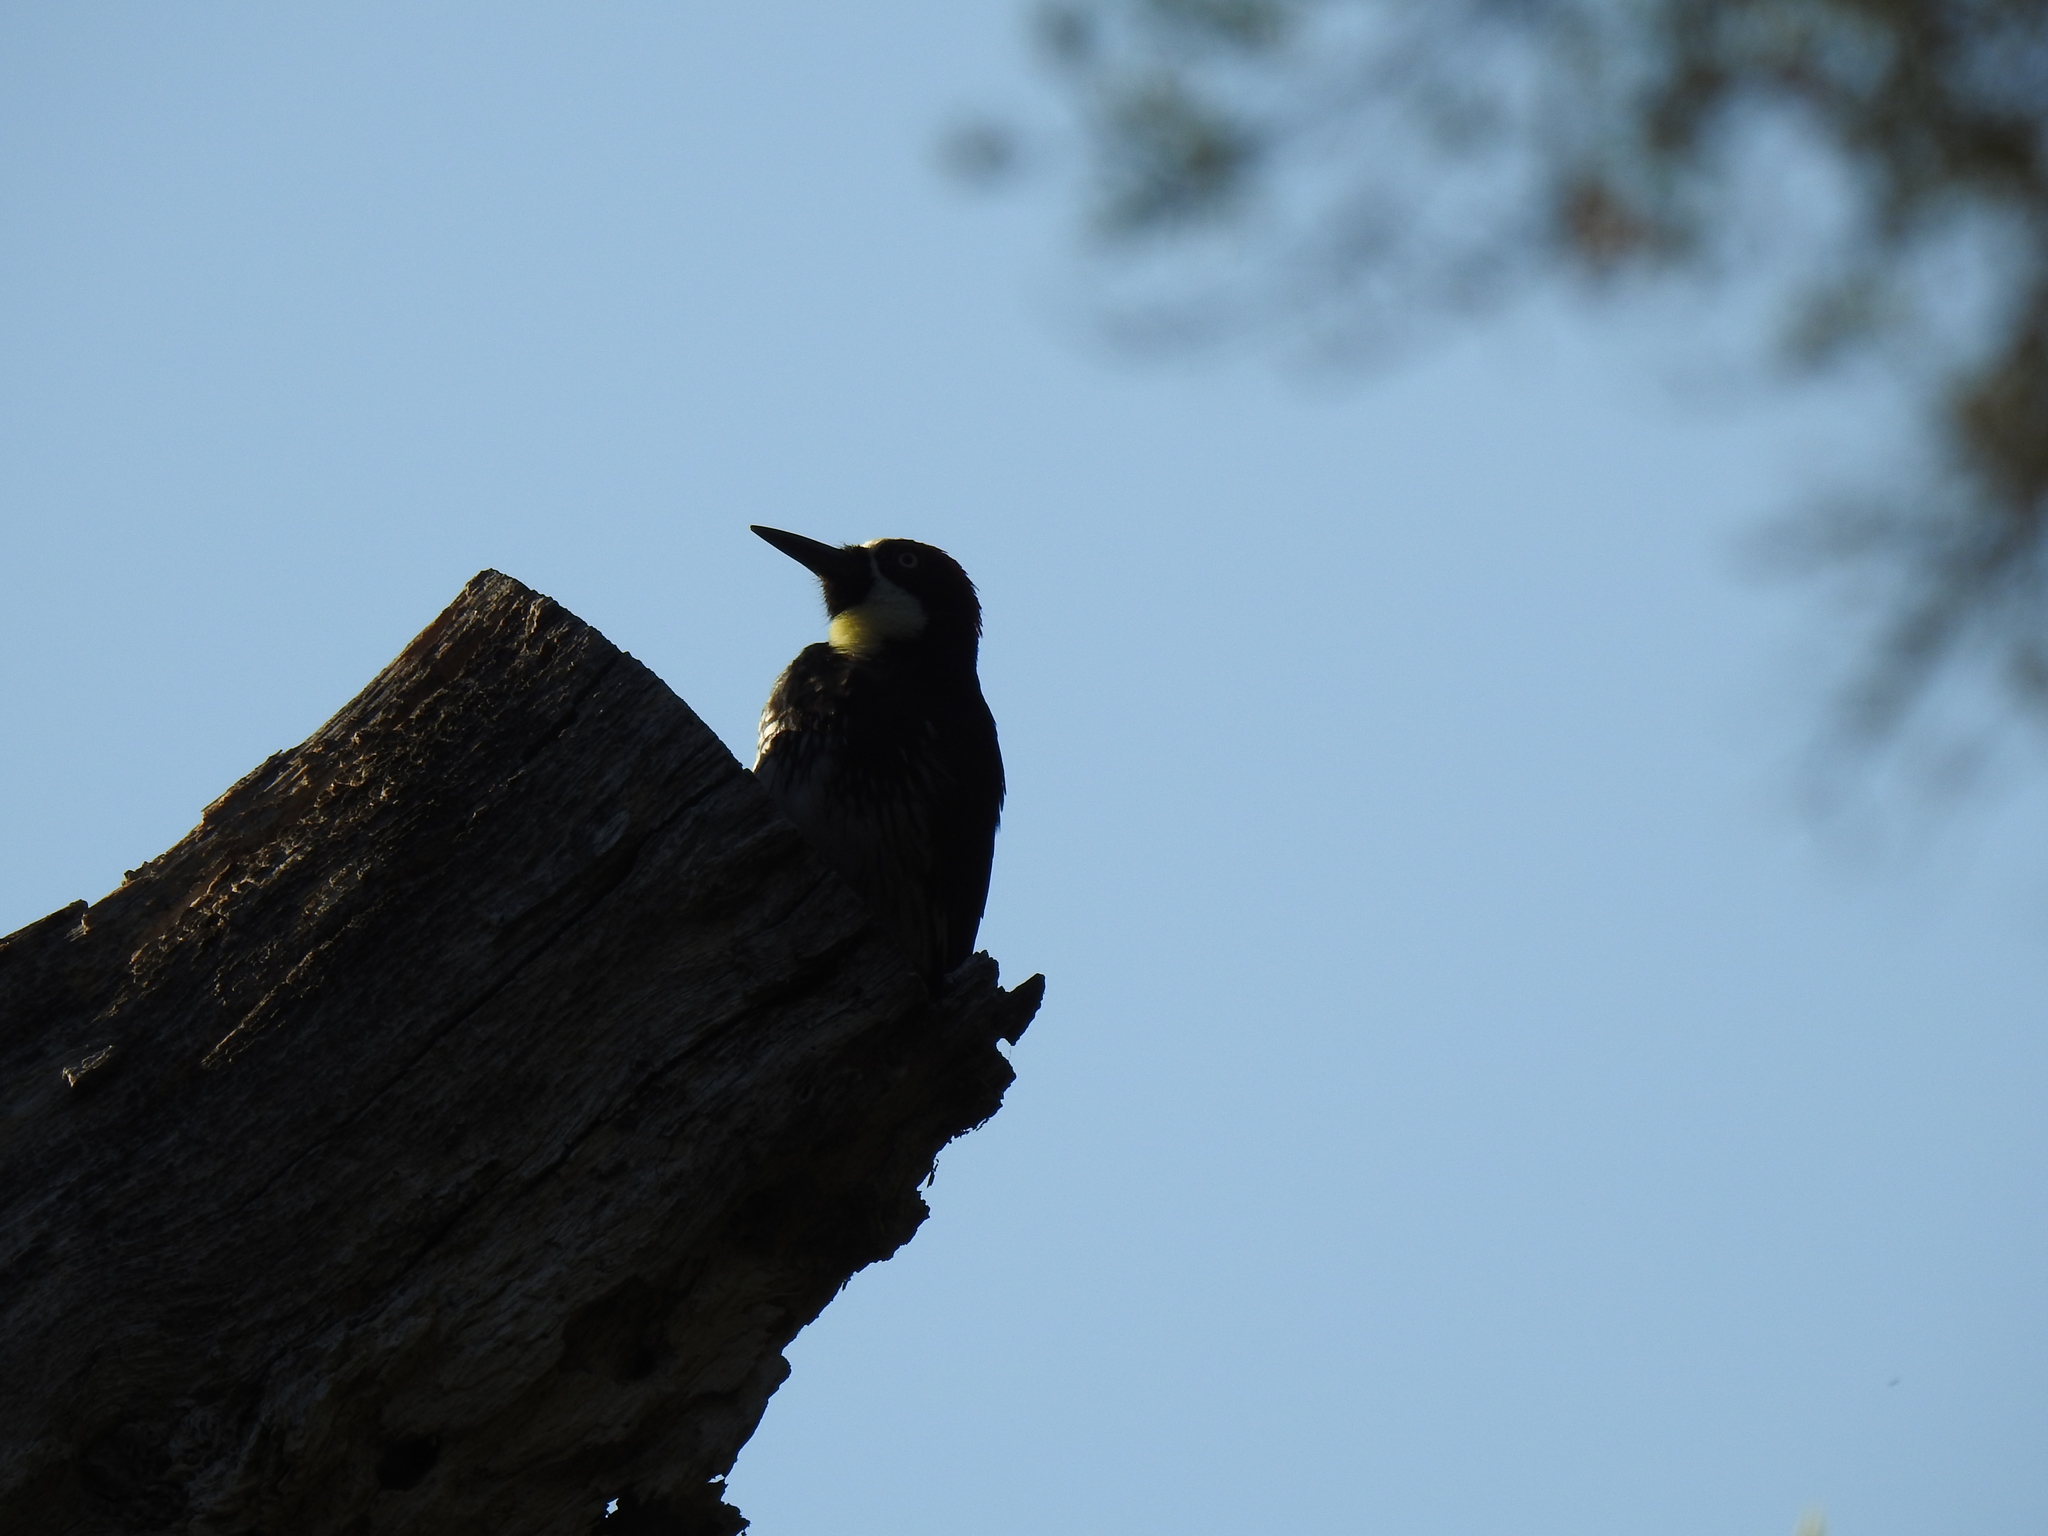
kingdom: Animalia
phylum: Chordata
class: Aves
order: Piciformes
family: Picidae
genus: Melanerpes
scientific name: Melanerpes formicivorus
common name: Acorn woodpecker
